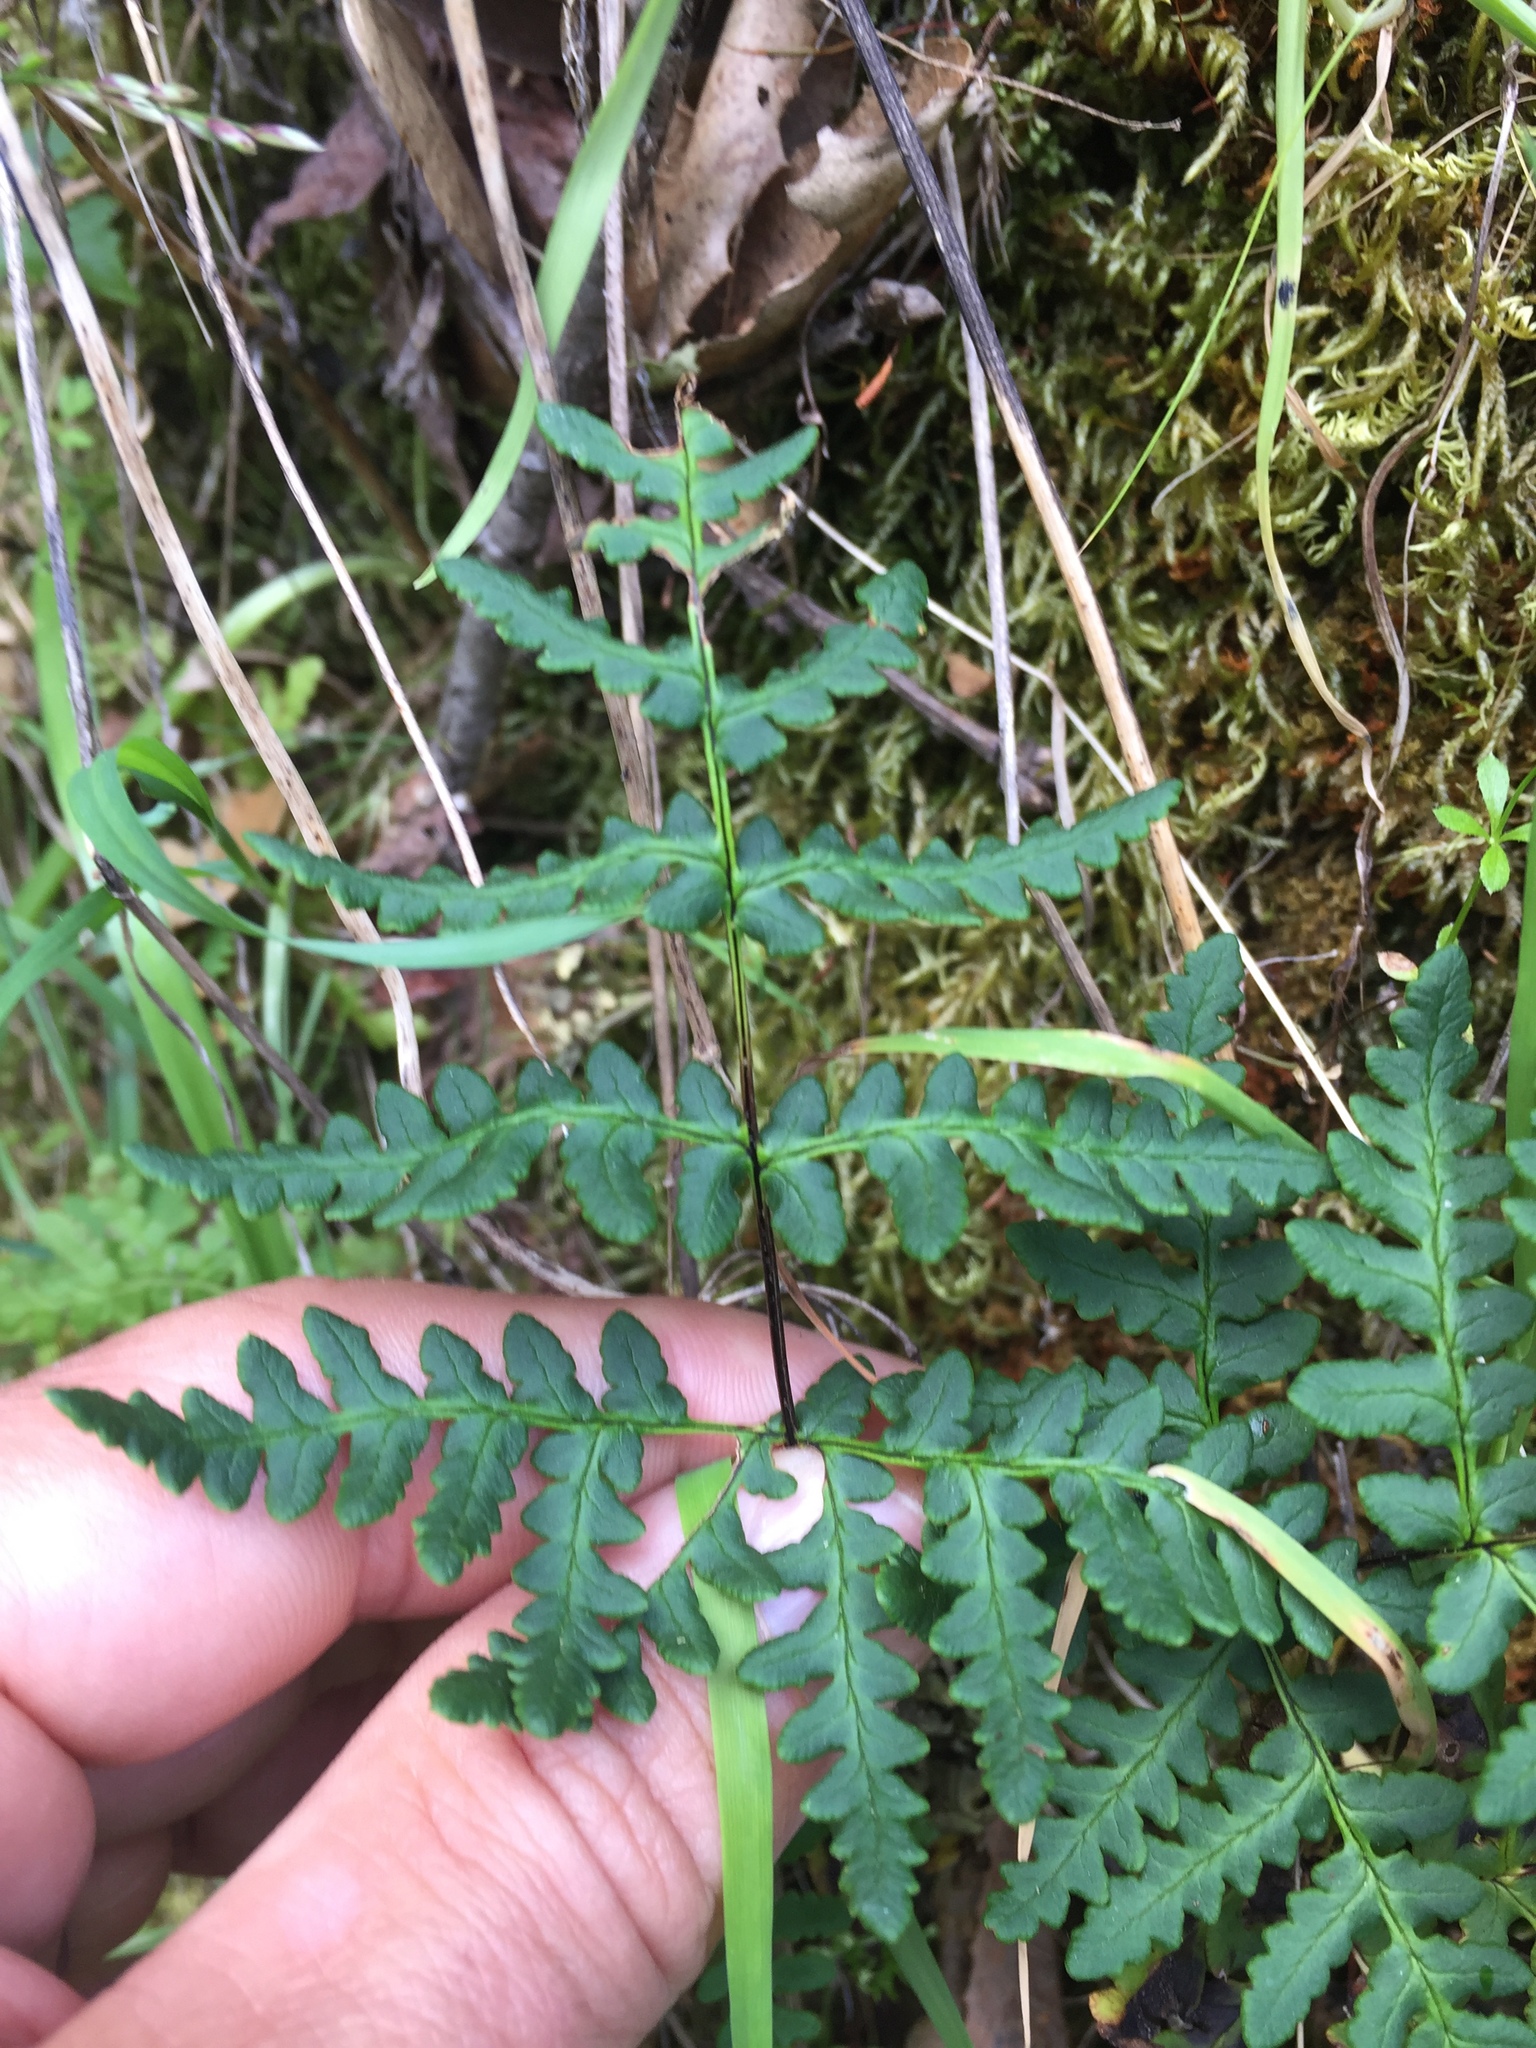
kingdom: Plantae
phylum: Tracheophyta
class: Polypodiopsida
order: Polypodiales
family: Pteridaceae
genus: Pentagramma
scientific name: Pentagramma triangularis
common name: Gold fern
